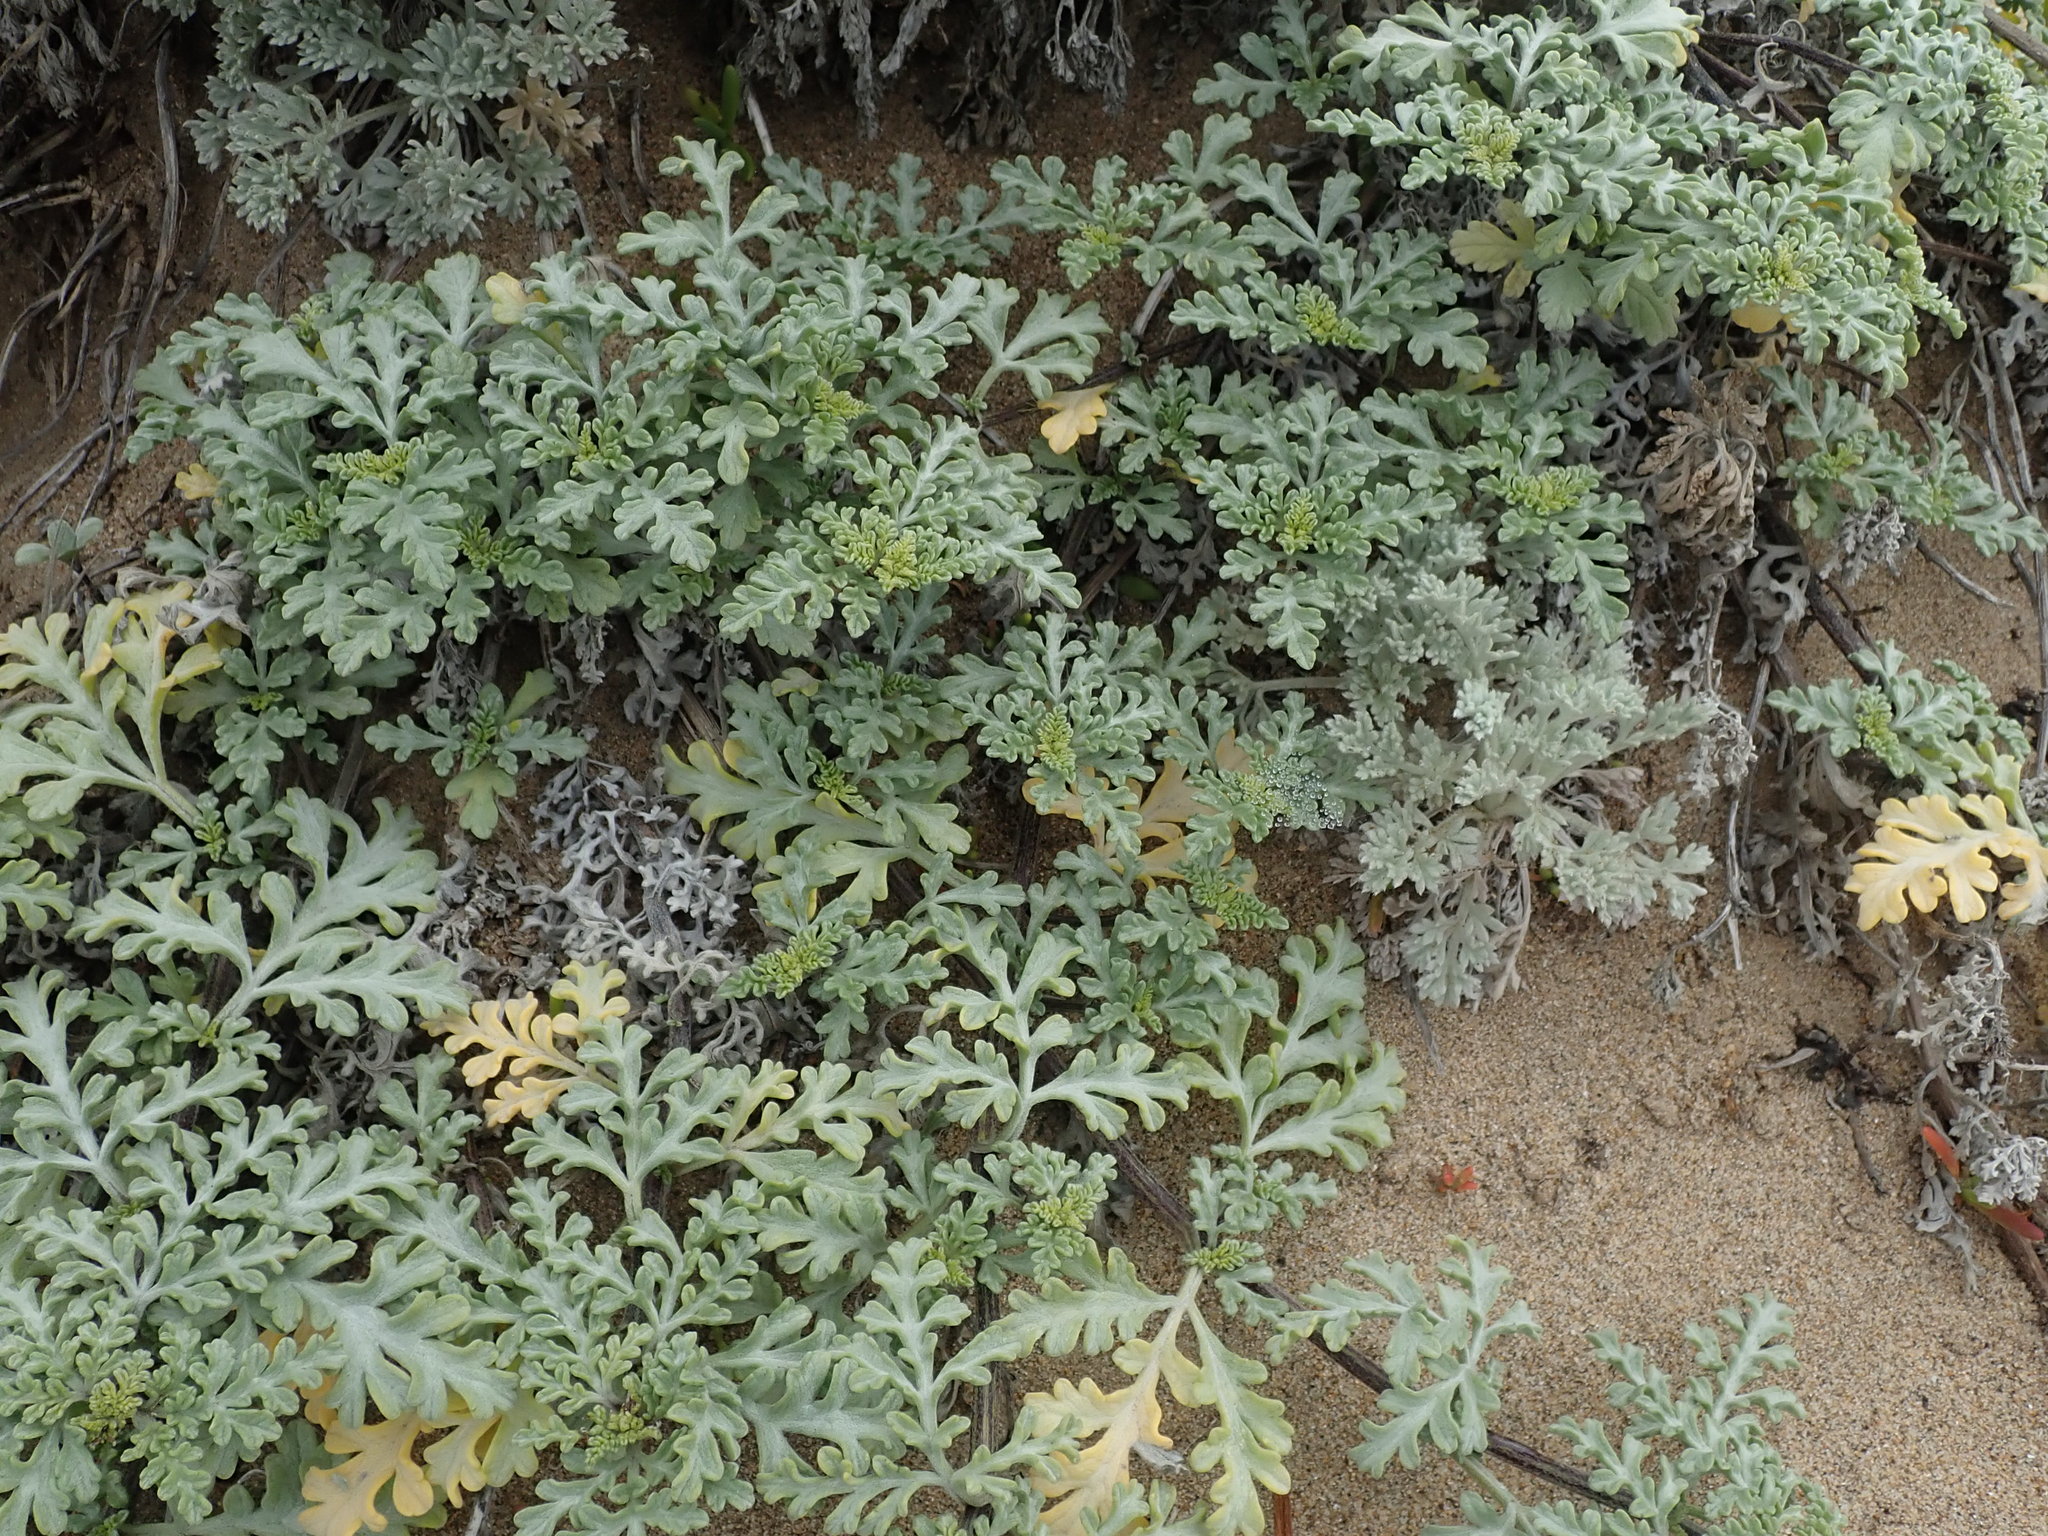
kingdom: Plantae
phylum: Tracheophyta
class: Magnoliopsida
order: Asterales
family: Asteraceae
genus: Ambrosia
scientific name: Ambrosia chamissonis
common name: Beachbur
